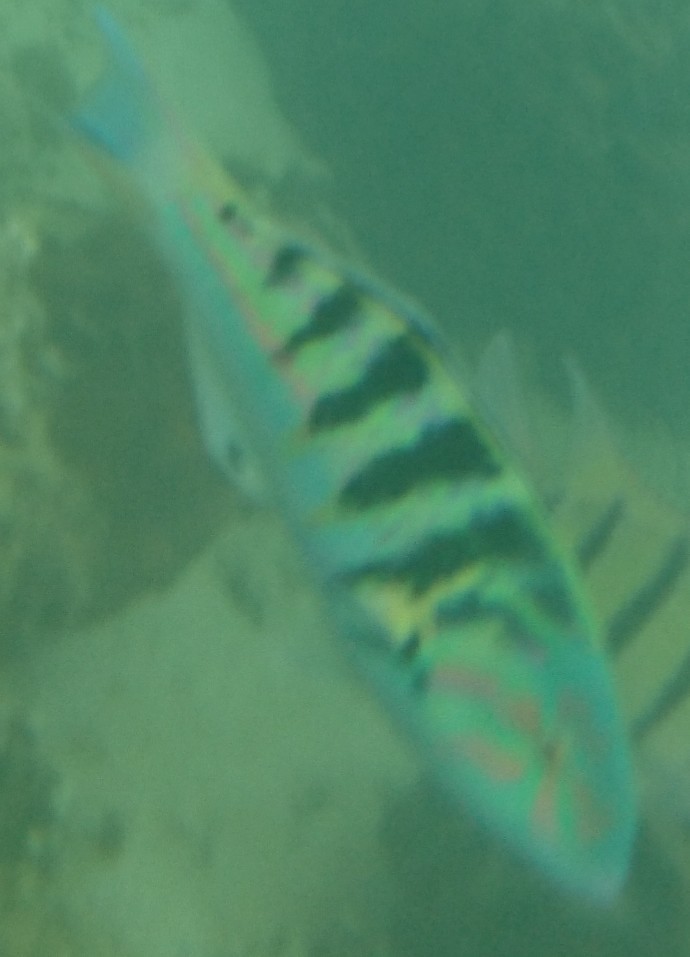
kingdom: Animalia
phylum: Chordata
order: Perciformes
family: Labridae
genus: Thalassoma
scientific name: Thalassoma hardwicke
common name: Sixbar wrasse
